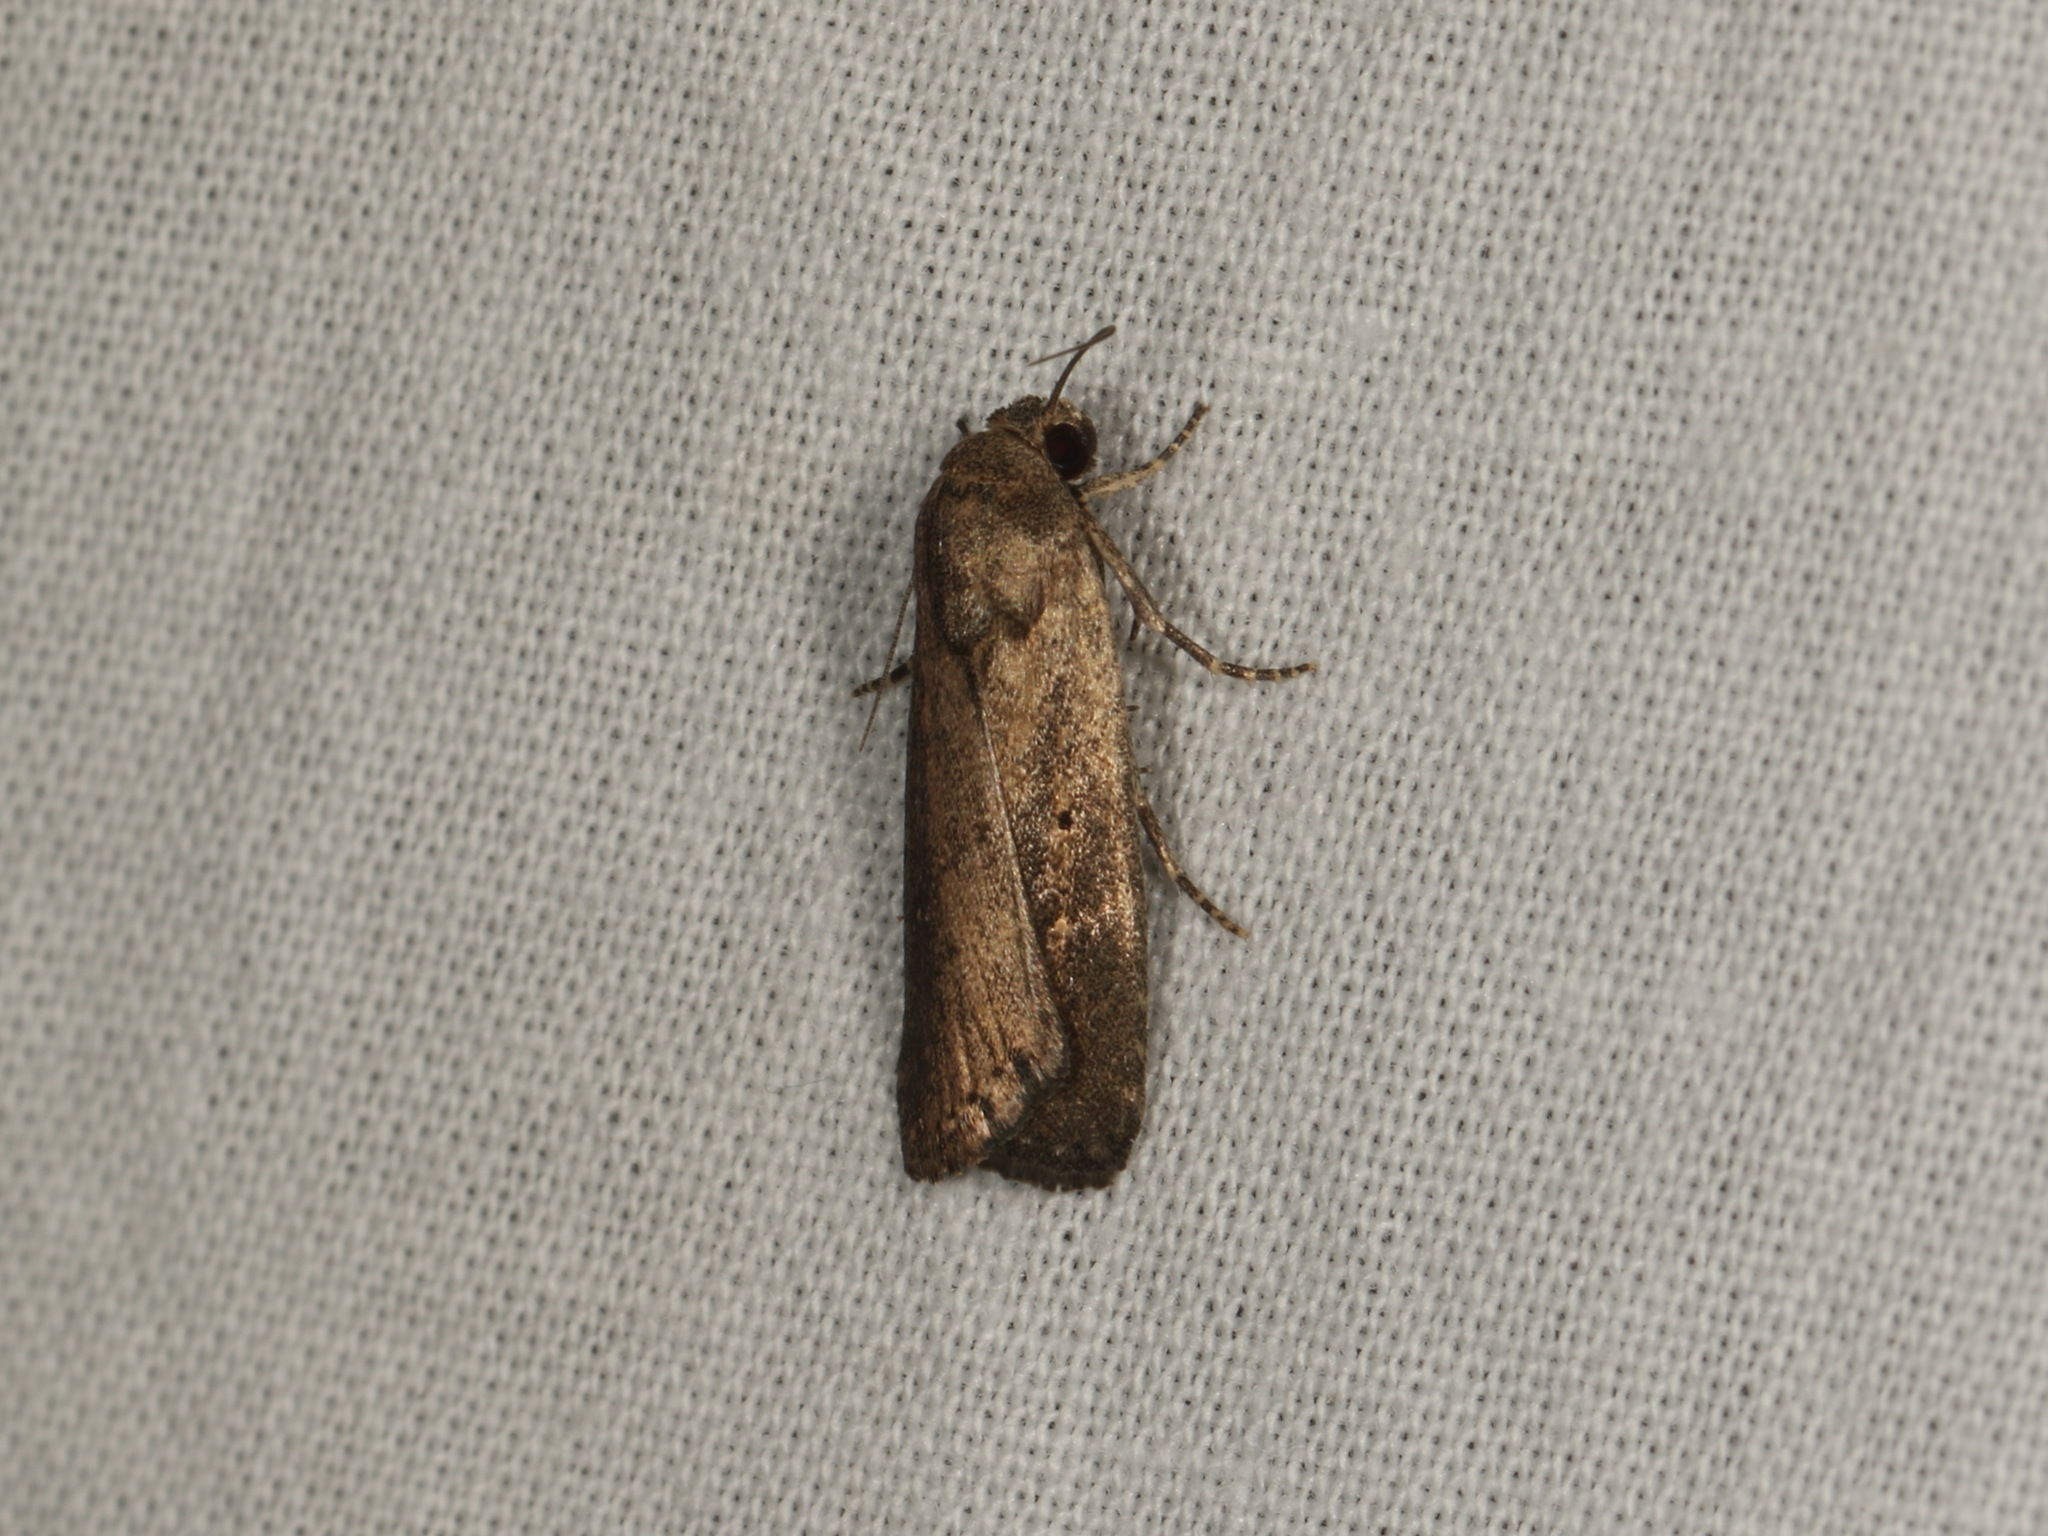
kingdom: Animalia
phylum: Arthropoda
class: Insecta
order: Lepidoptera
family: Noctuidae
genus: Athetis
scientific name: Athetis tenuis
